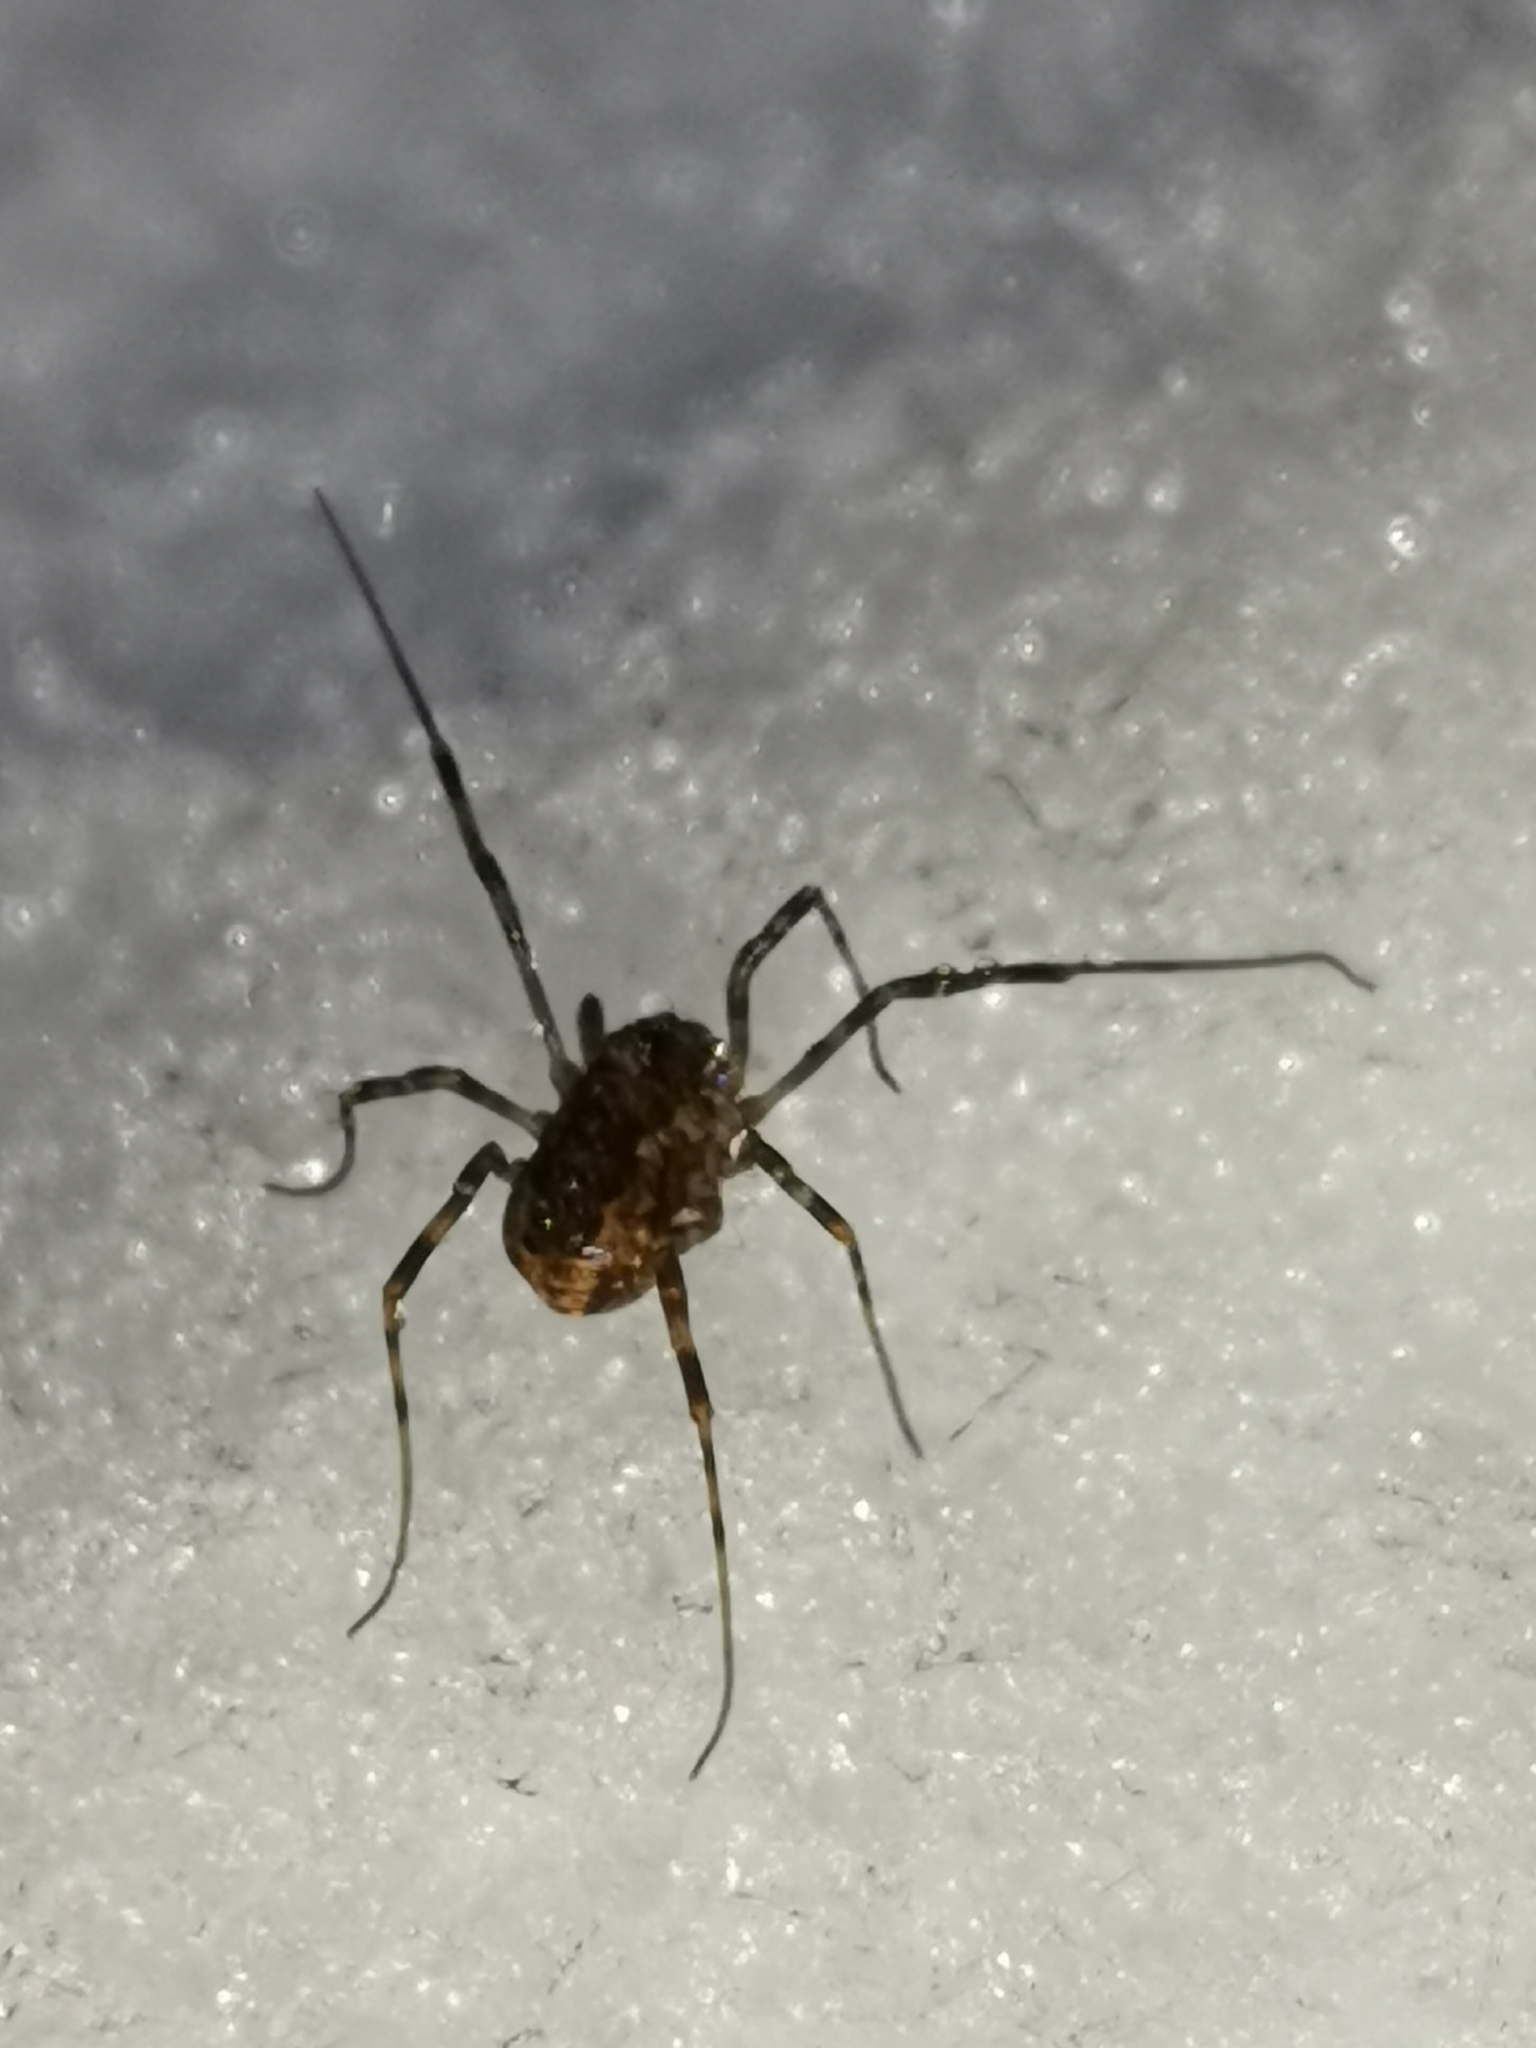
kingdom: Animalia
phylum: Arthropoda
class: Arachnida
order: Opiliones
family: Phalangiidae
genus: Rilaena
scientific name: Rilaena triangularis
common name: Spring harvestman
